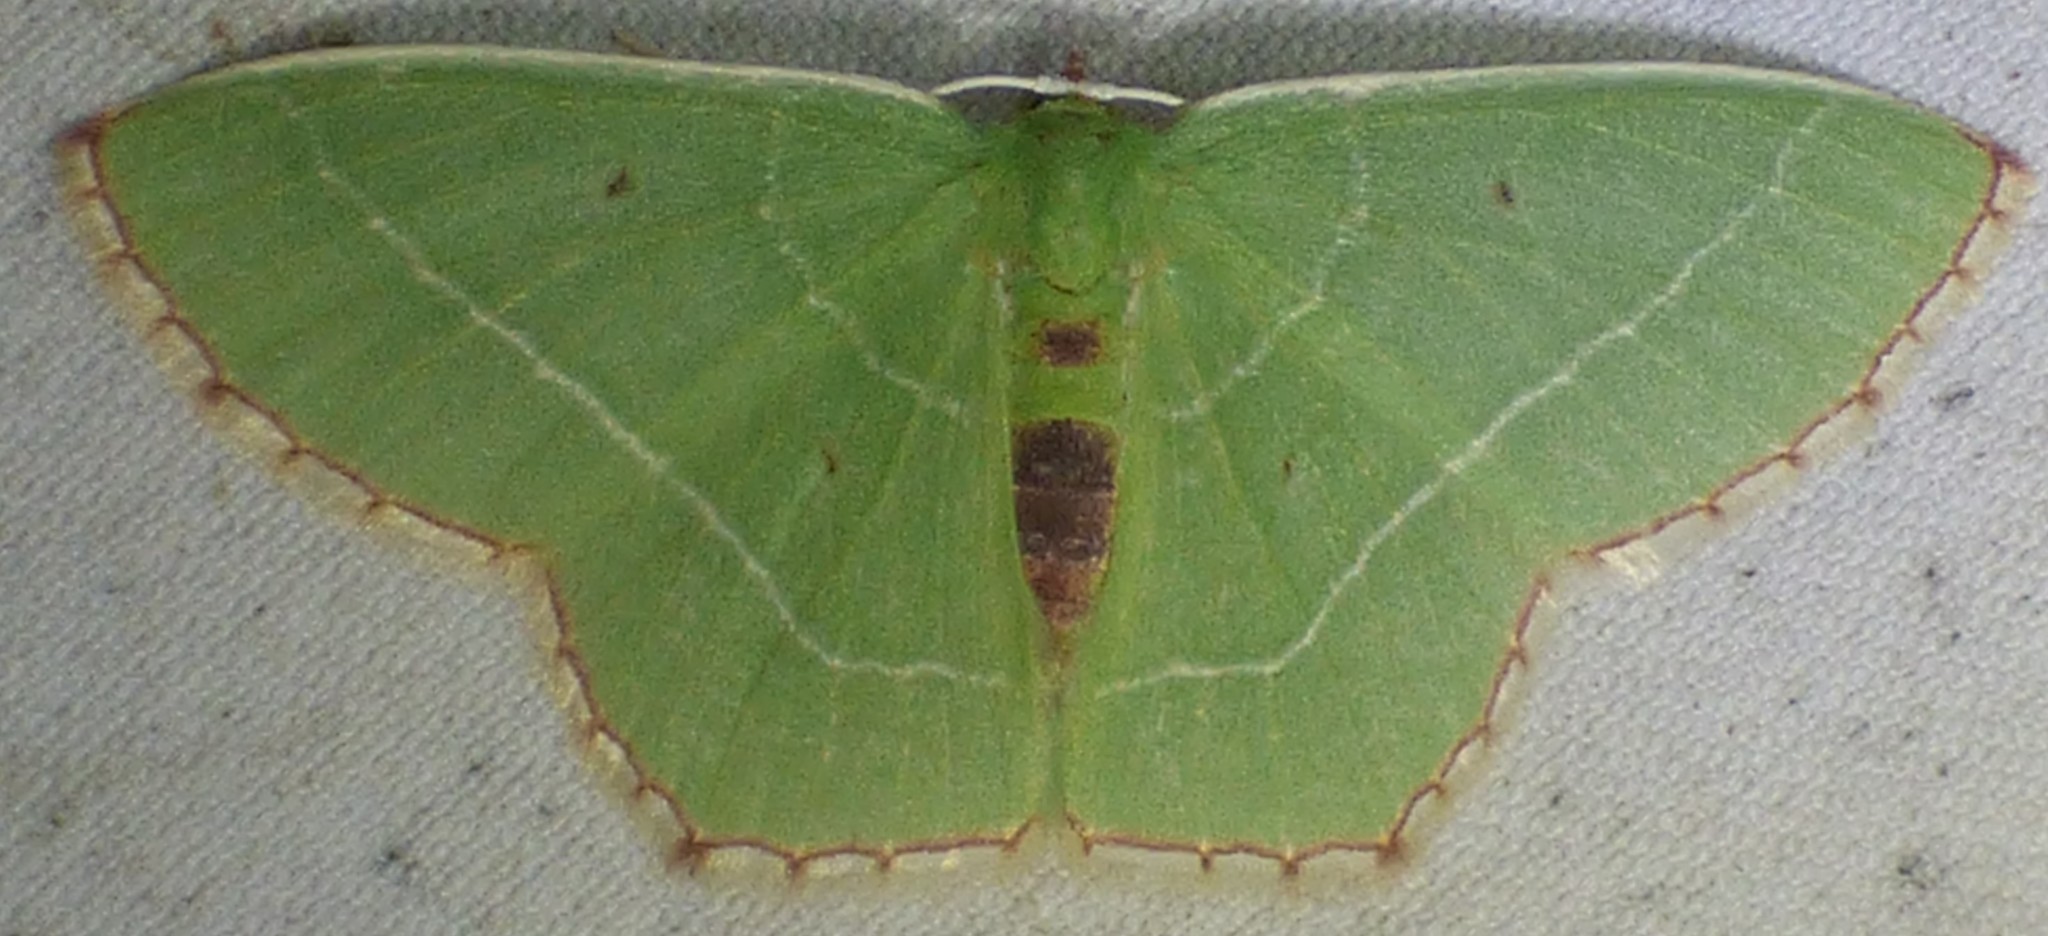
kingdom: Animalia
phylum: Arthropoda
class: Insecta
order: Lepidoptera
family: Geometridae
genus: Nemoria
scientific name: Nemoria saturiba
